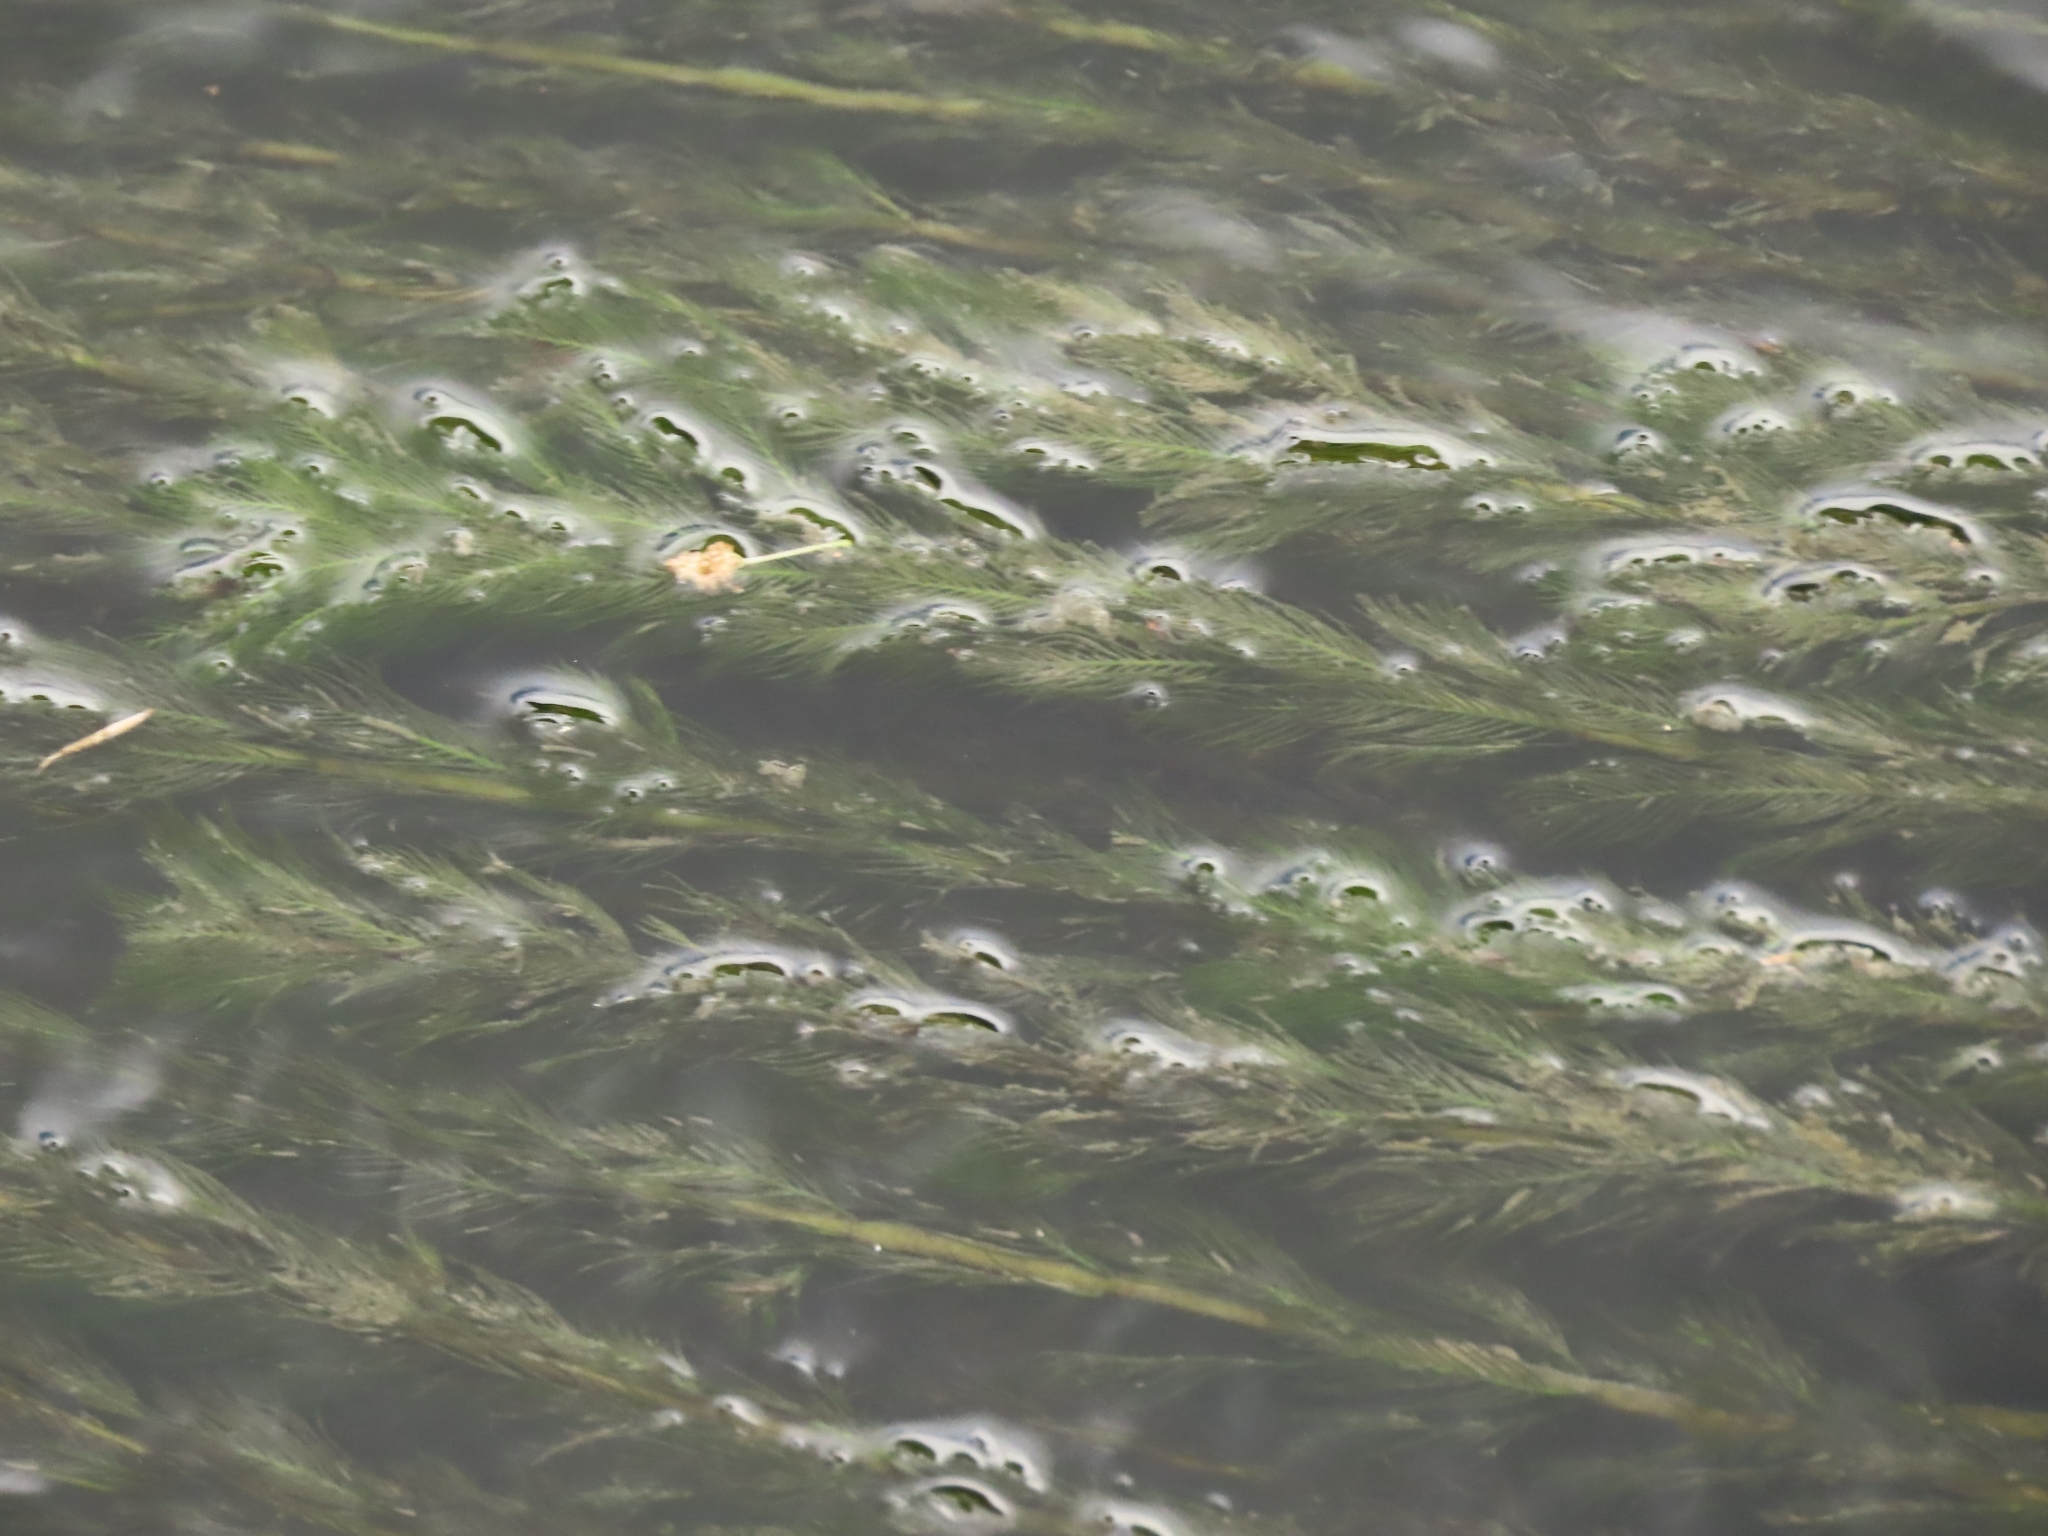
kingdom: Plantae
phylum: Tracheophyta
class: Magnoliopsida
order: Saxifragales
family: Haloragaceae
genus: Myriophyllum
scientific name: Myriophyllum spicatum
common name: Spiked water-milfoil
